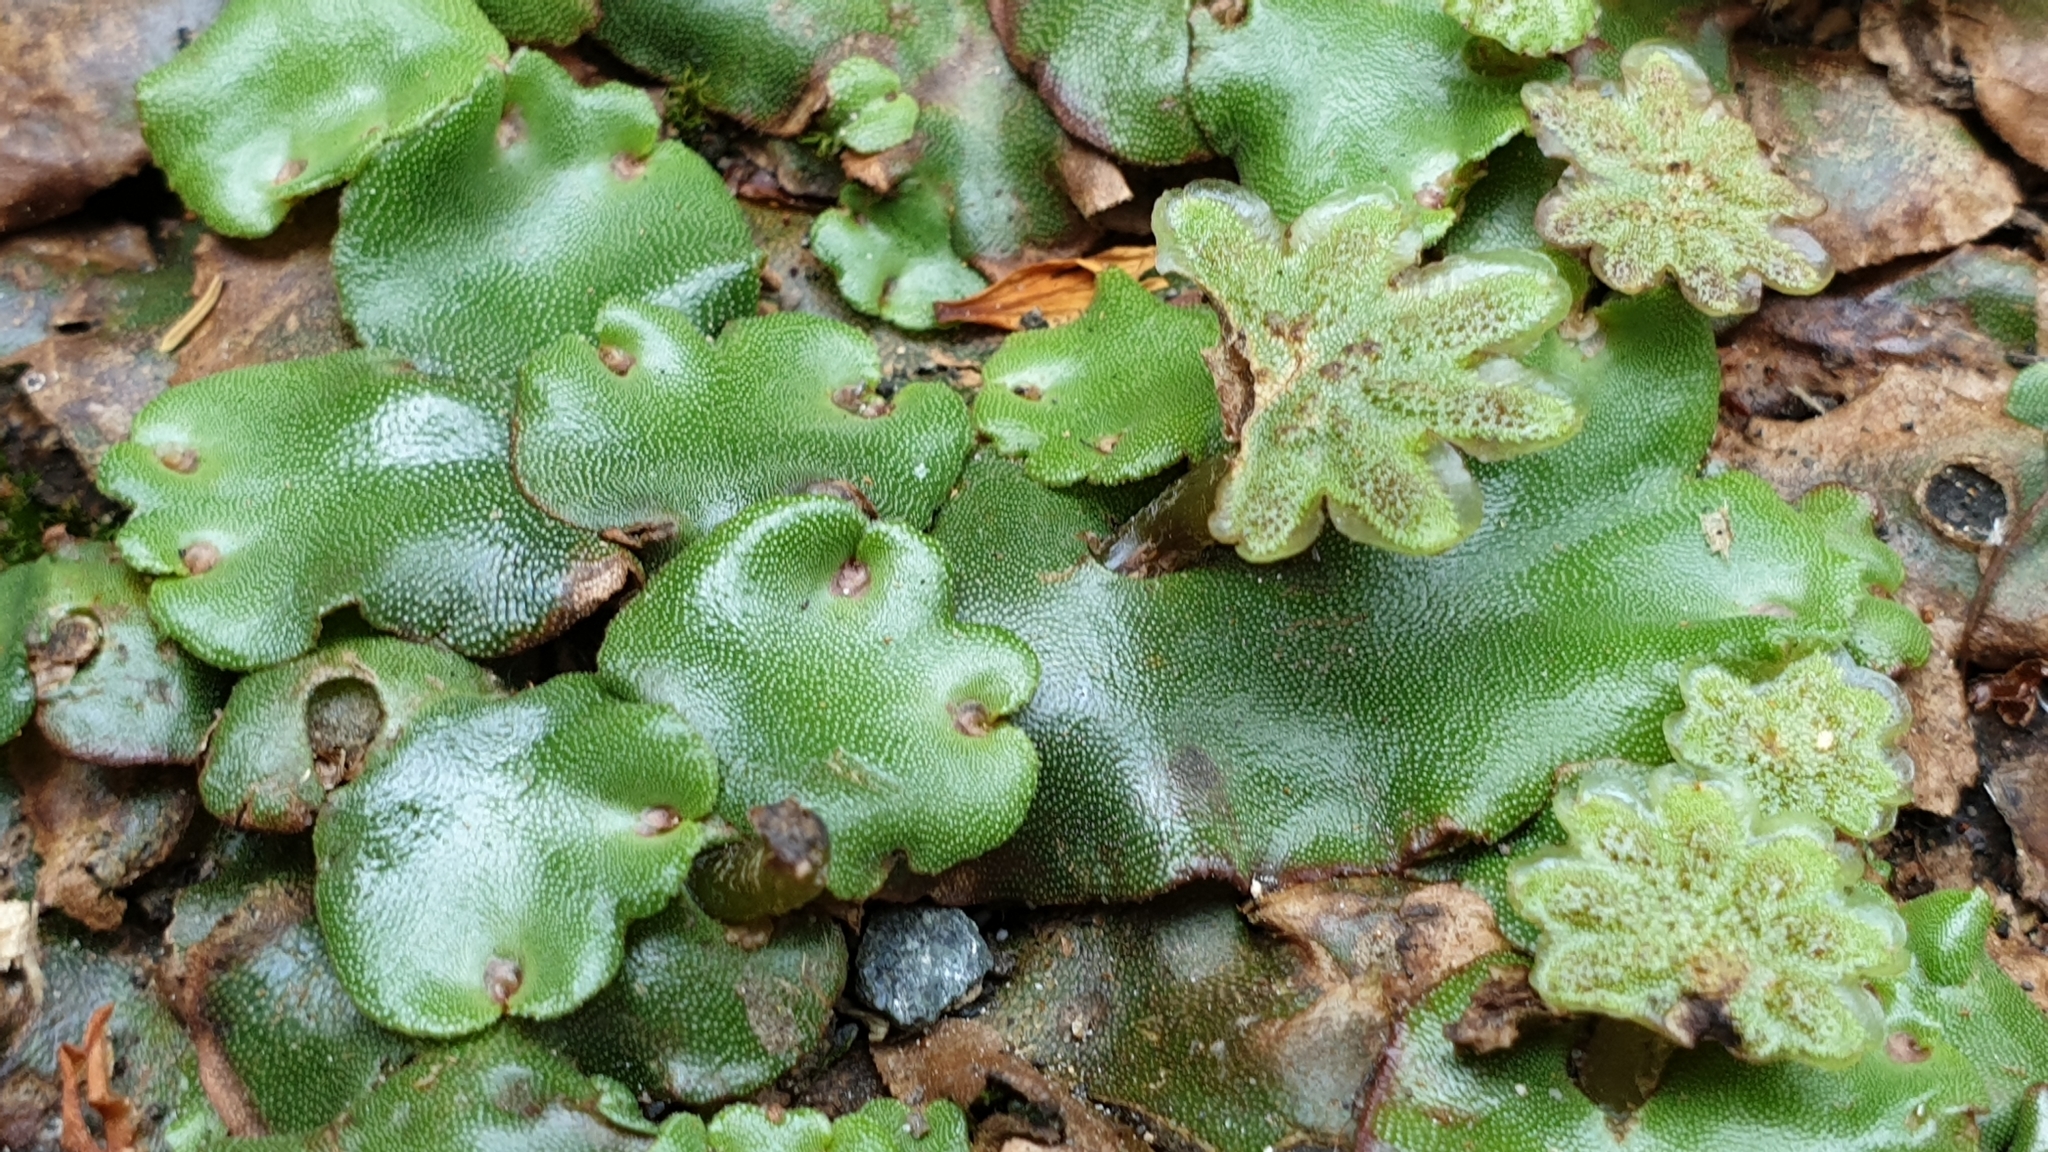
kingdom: Plantae
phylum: Marchantiophyta
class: Marchantiopsida
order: Marchantiales
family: Marchantiaceae
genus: Marchantia
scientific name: Marchantia berteroana
